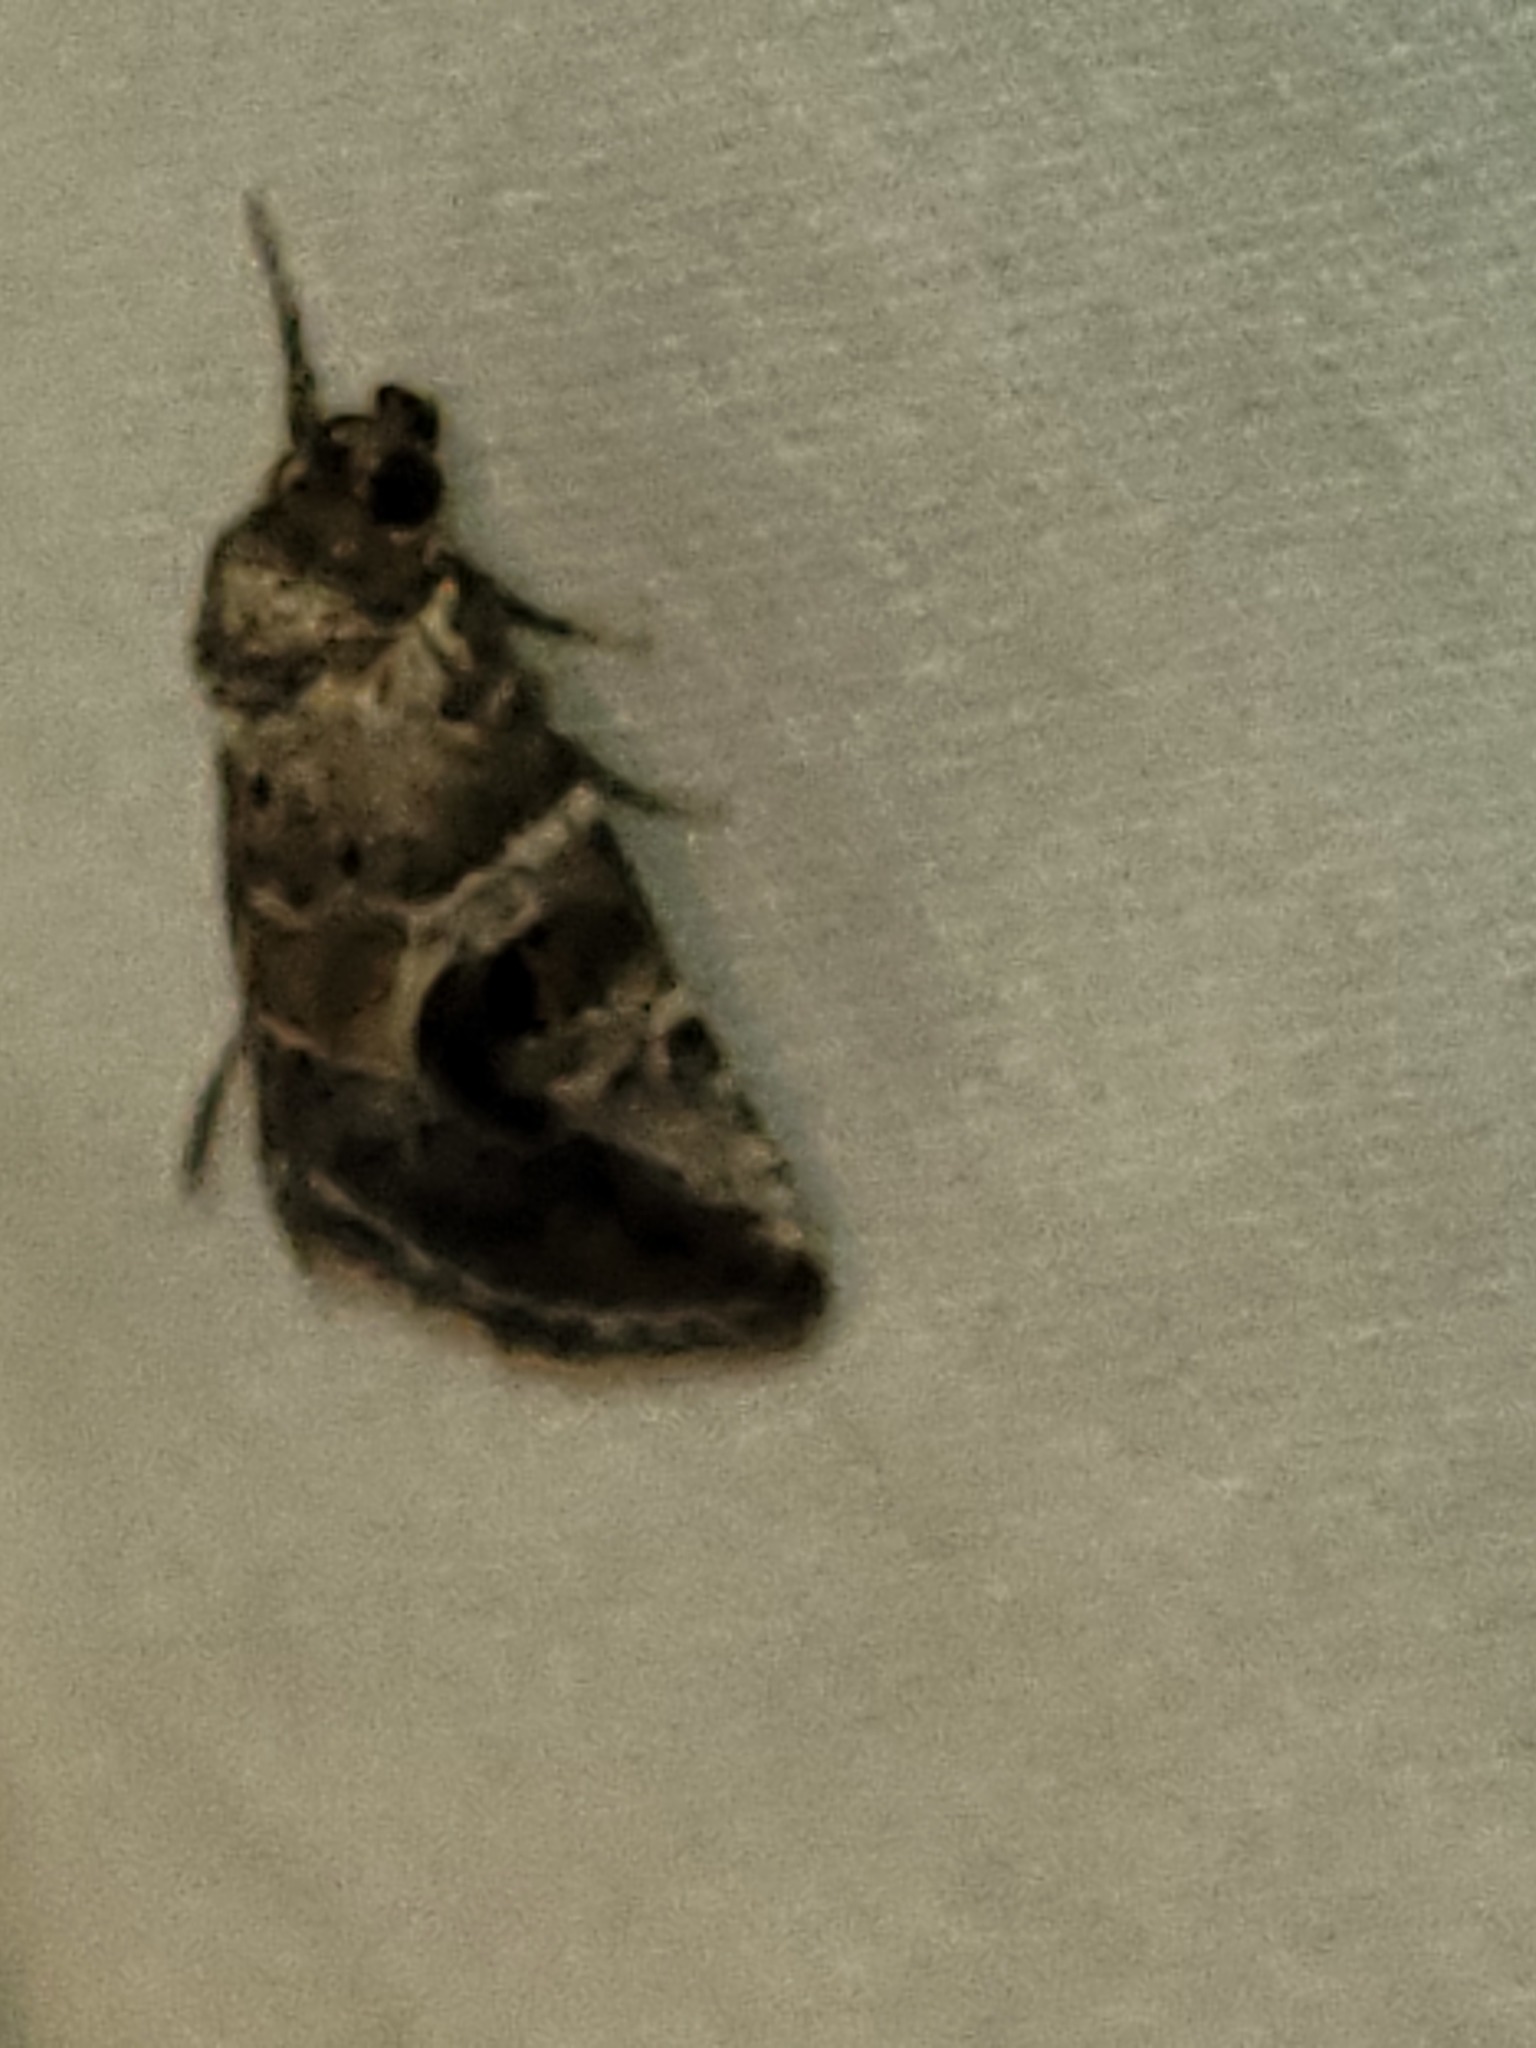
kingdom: Animalia
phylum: Arthropoda
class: Insecta
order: Lepidoptera
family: Noctuidae
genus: Diastema
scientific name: Diastema cnossia
